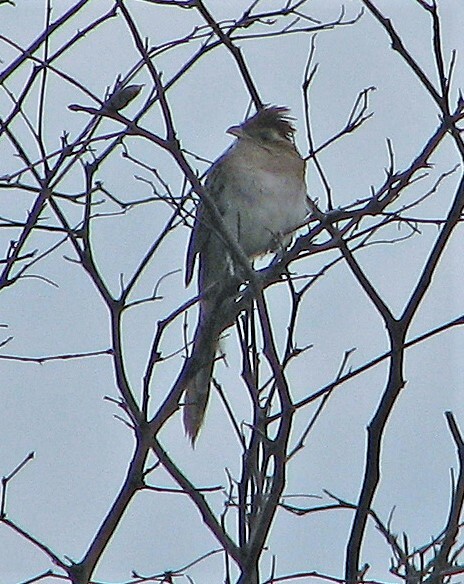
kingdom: Animalia
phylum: Chordata
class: Aves
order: Cuculiformes
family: Cuculidae
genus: Tapera
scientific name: Tapera naevia
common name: Striped cuckoo
